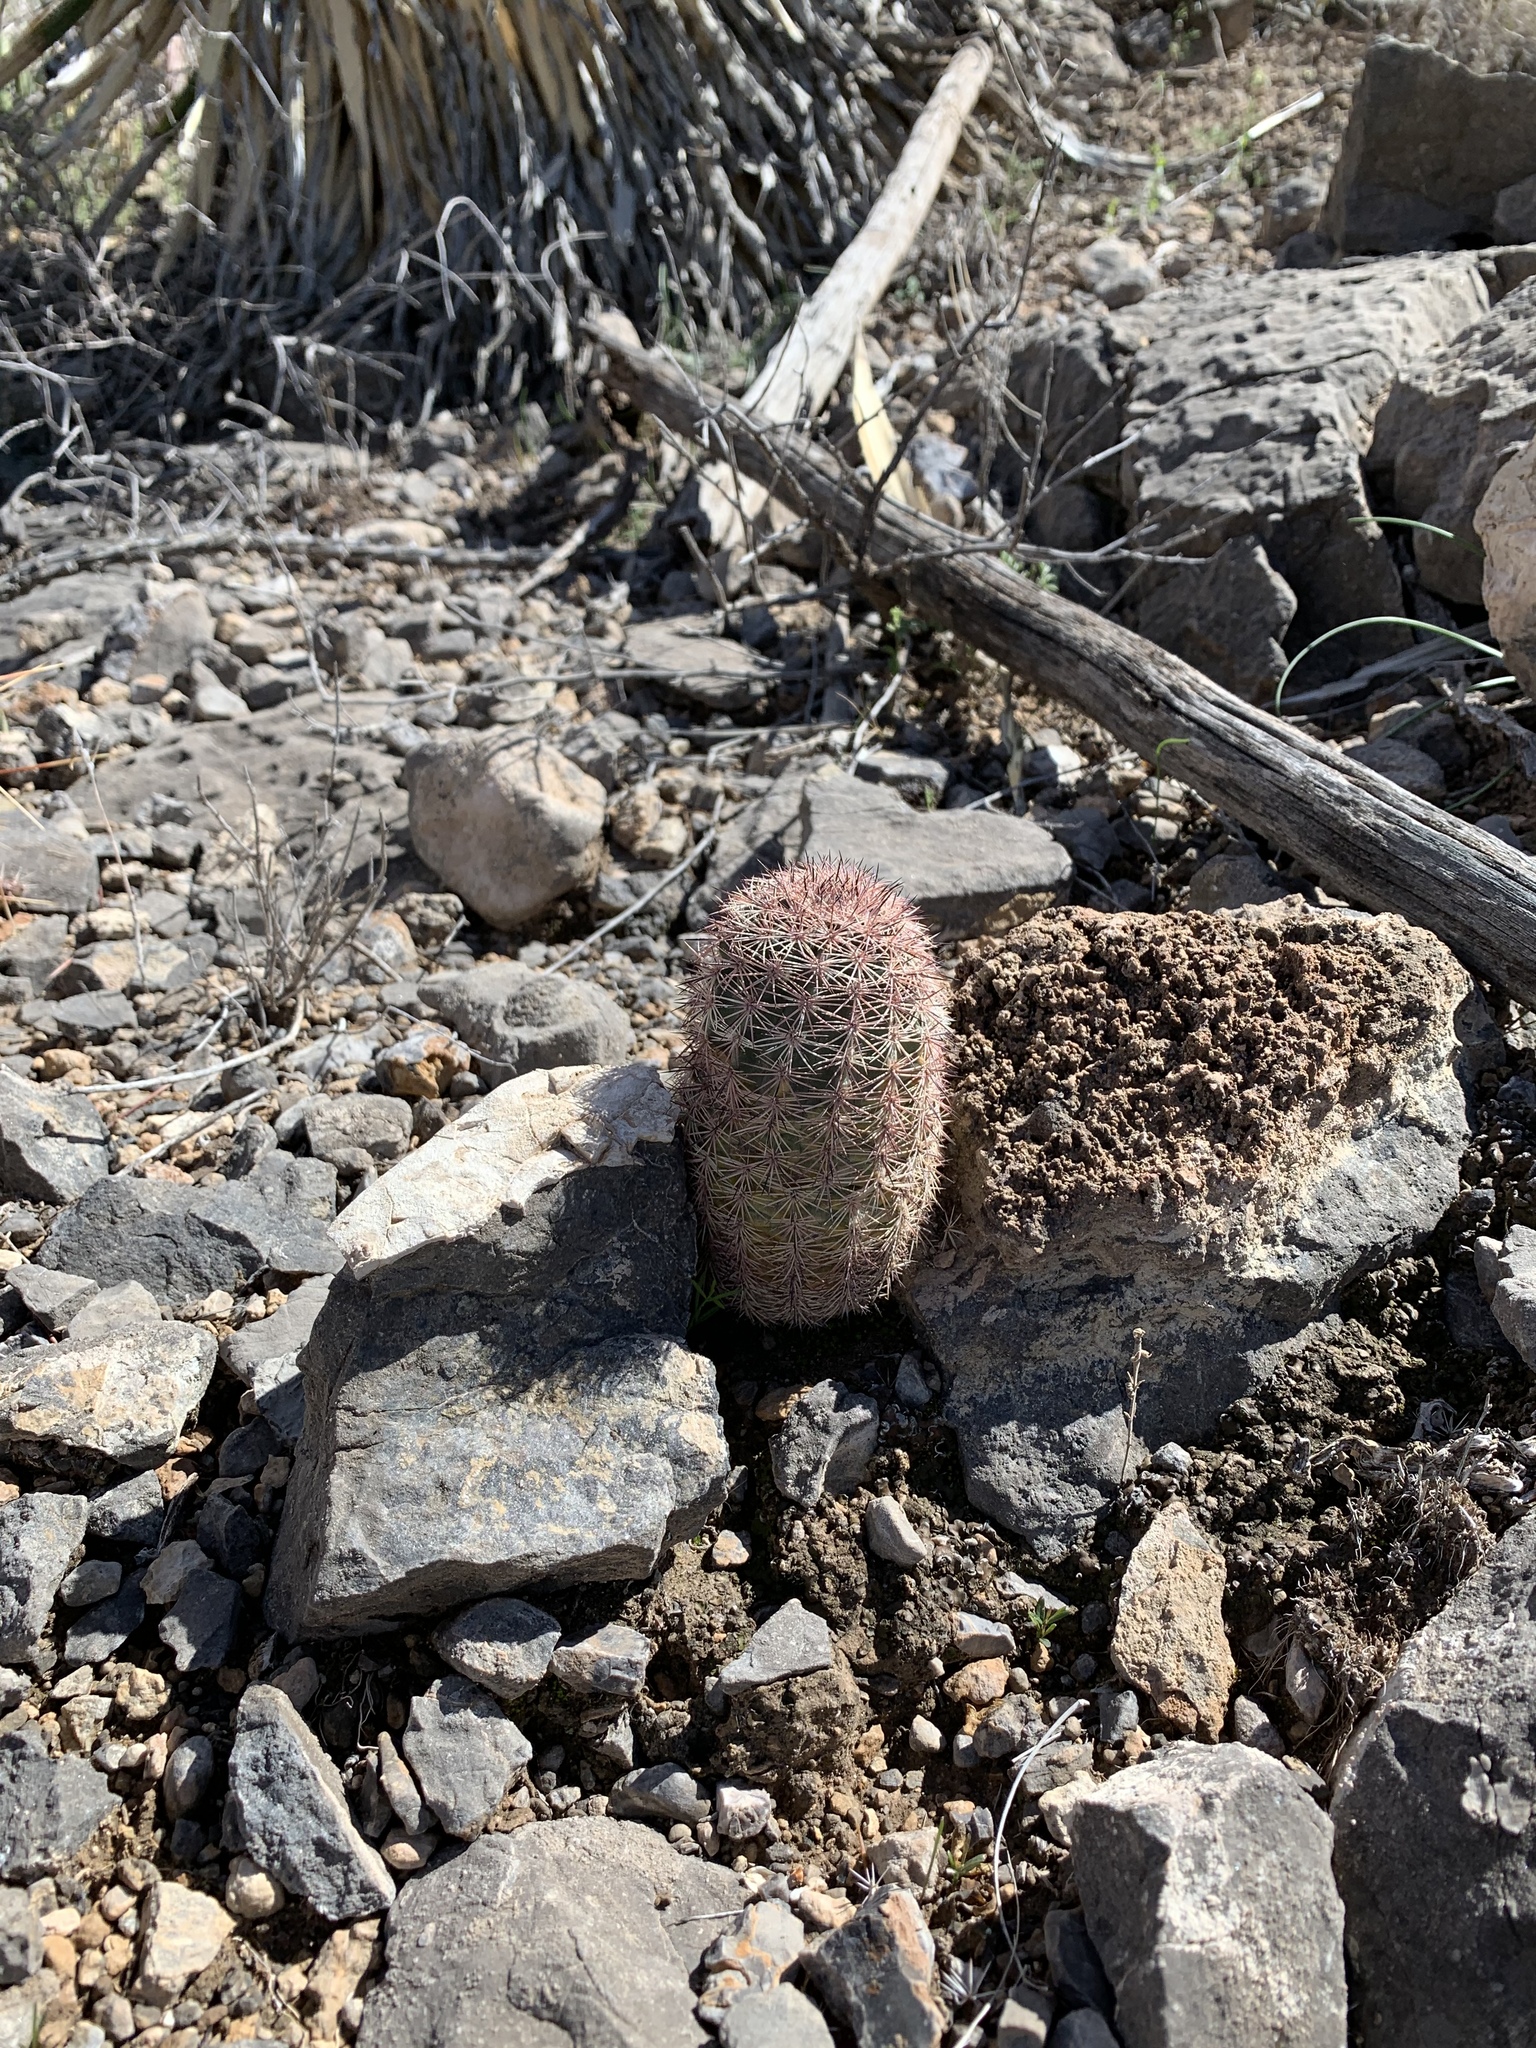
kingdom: Plantae
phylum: Tracheophyta
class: Magnoliopsida
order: Caryophyllales
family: Cactaceae
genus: Echinocereus
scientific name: Echinocereus dasyacanthus
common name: Spiny hedgehog cactus
